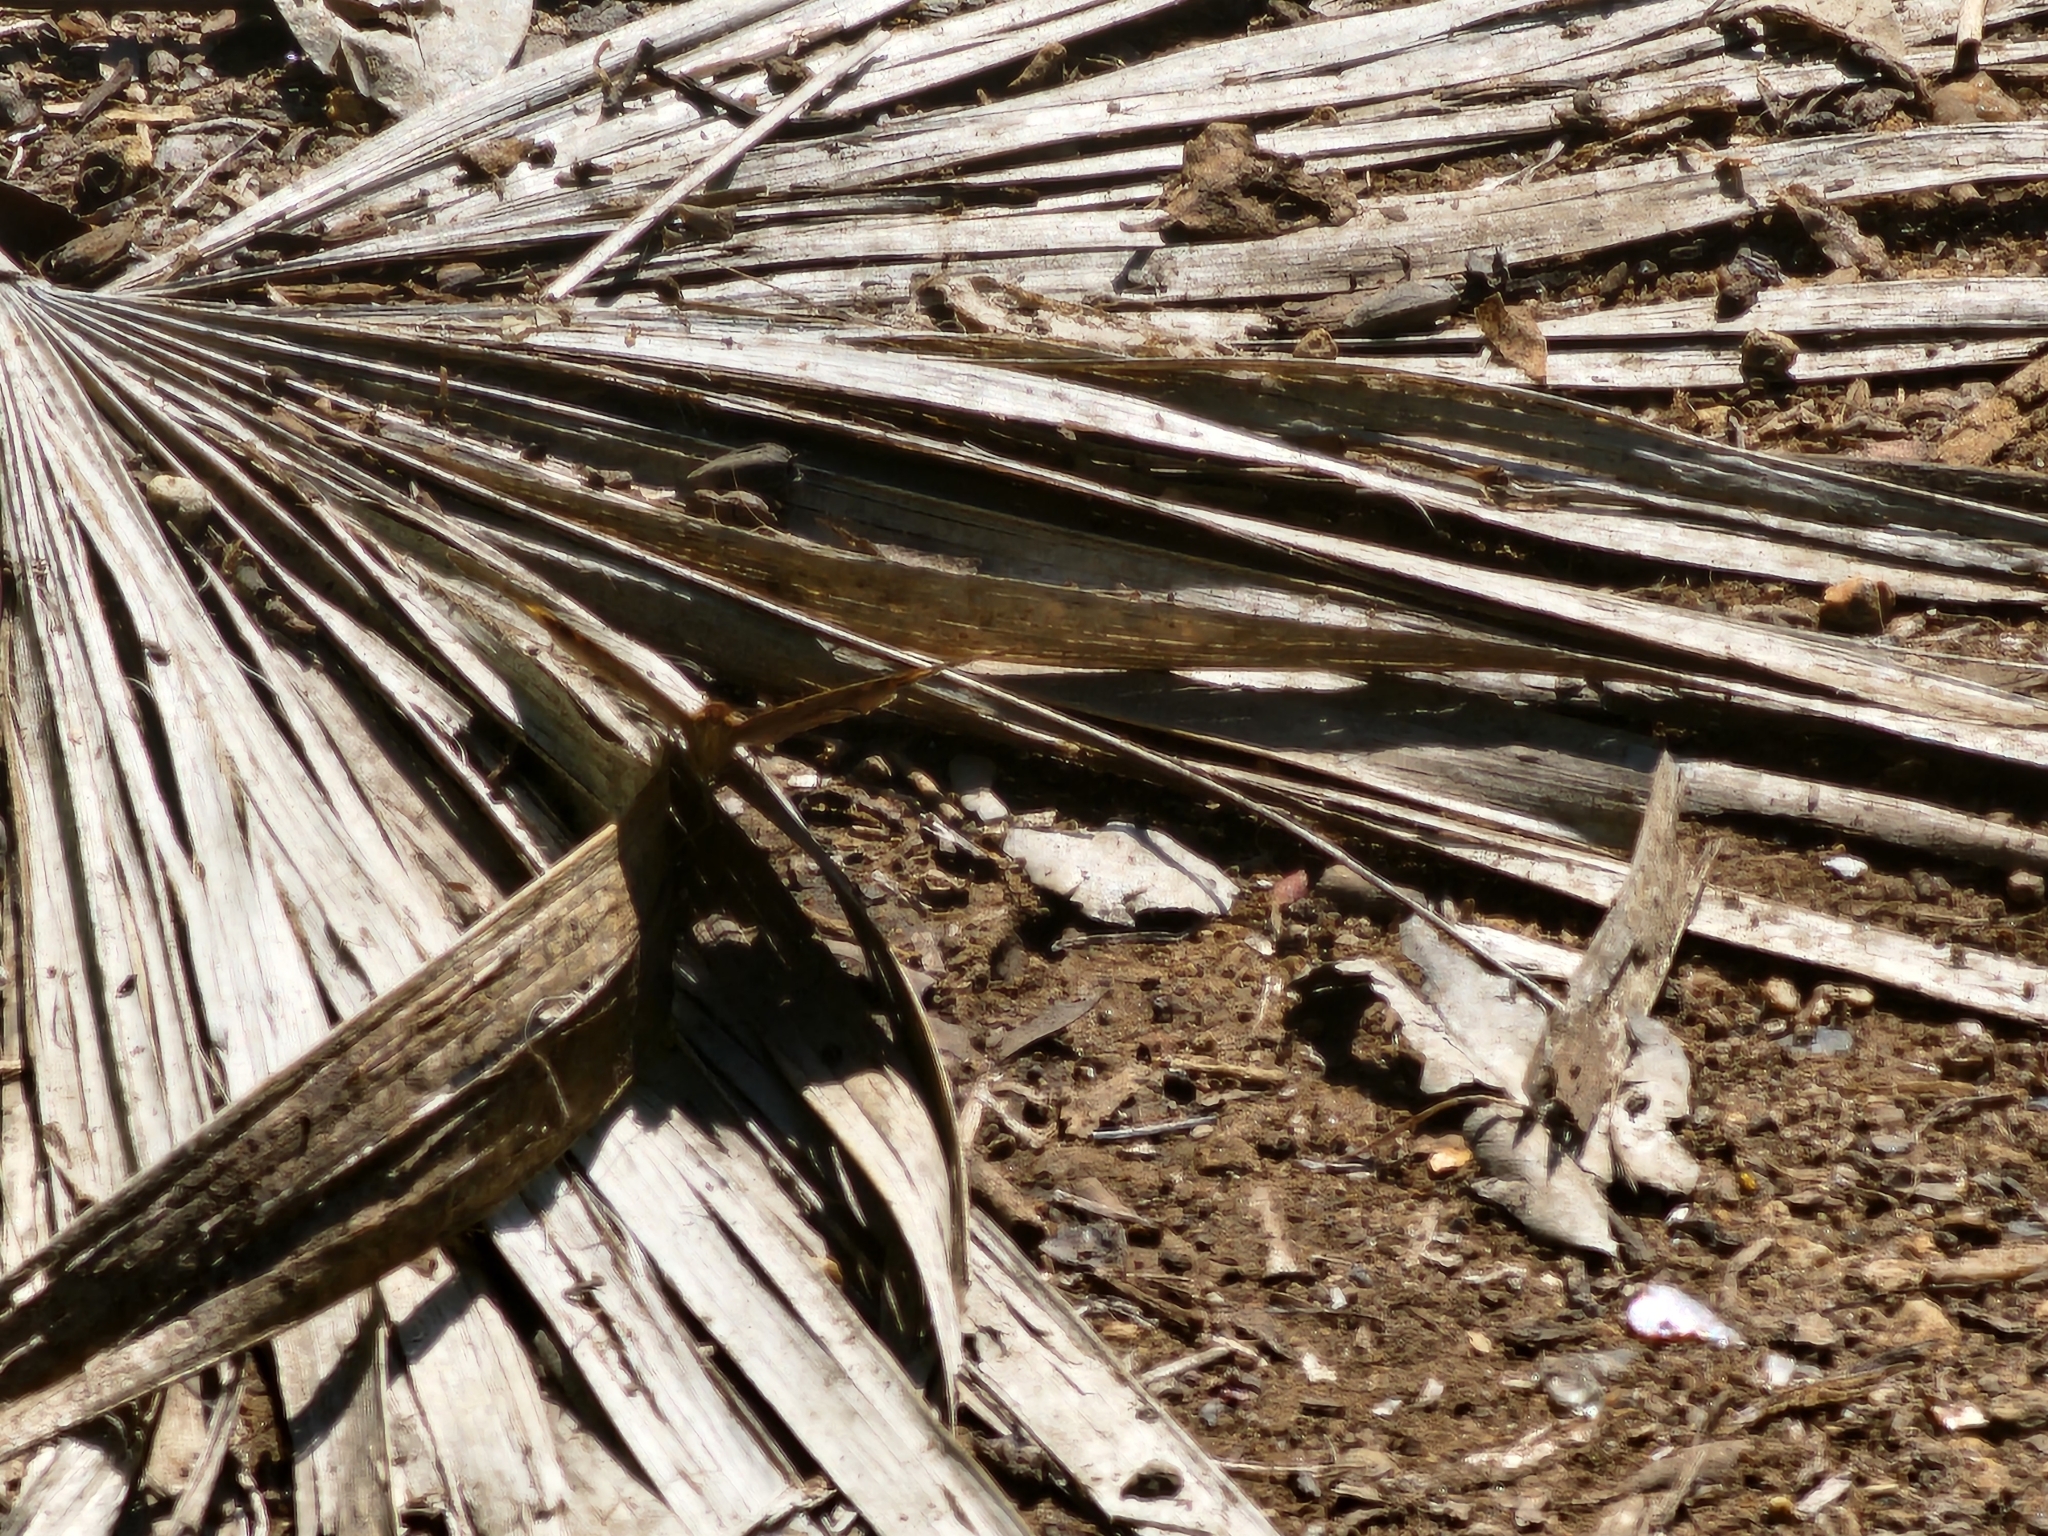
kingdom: Animalia
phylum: Arthropoda
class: Insecta
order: Lepidoptera
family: Nymphalidae
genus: Junonia
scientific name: Junonia neildi
